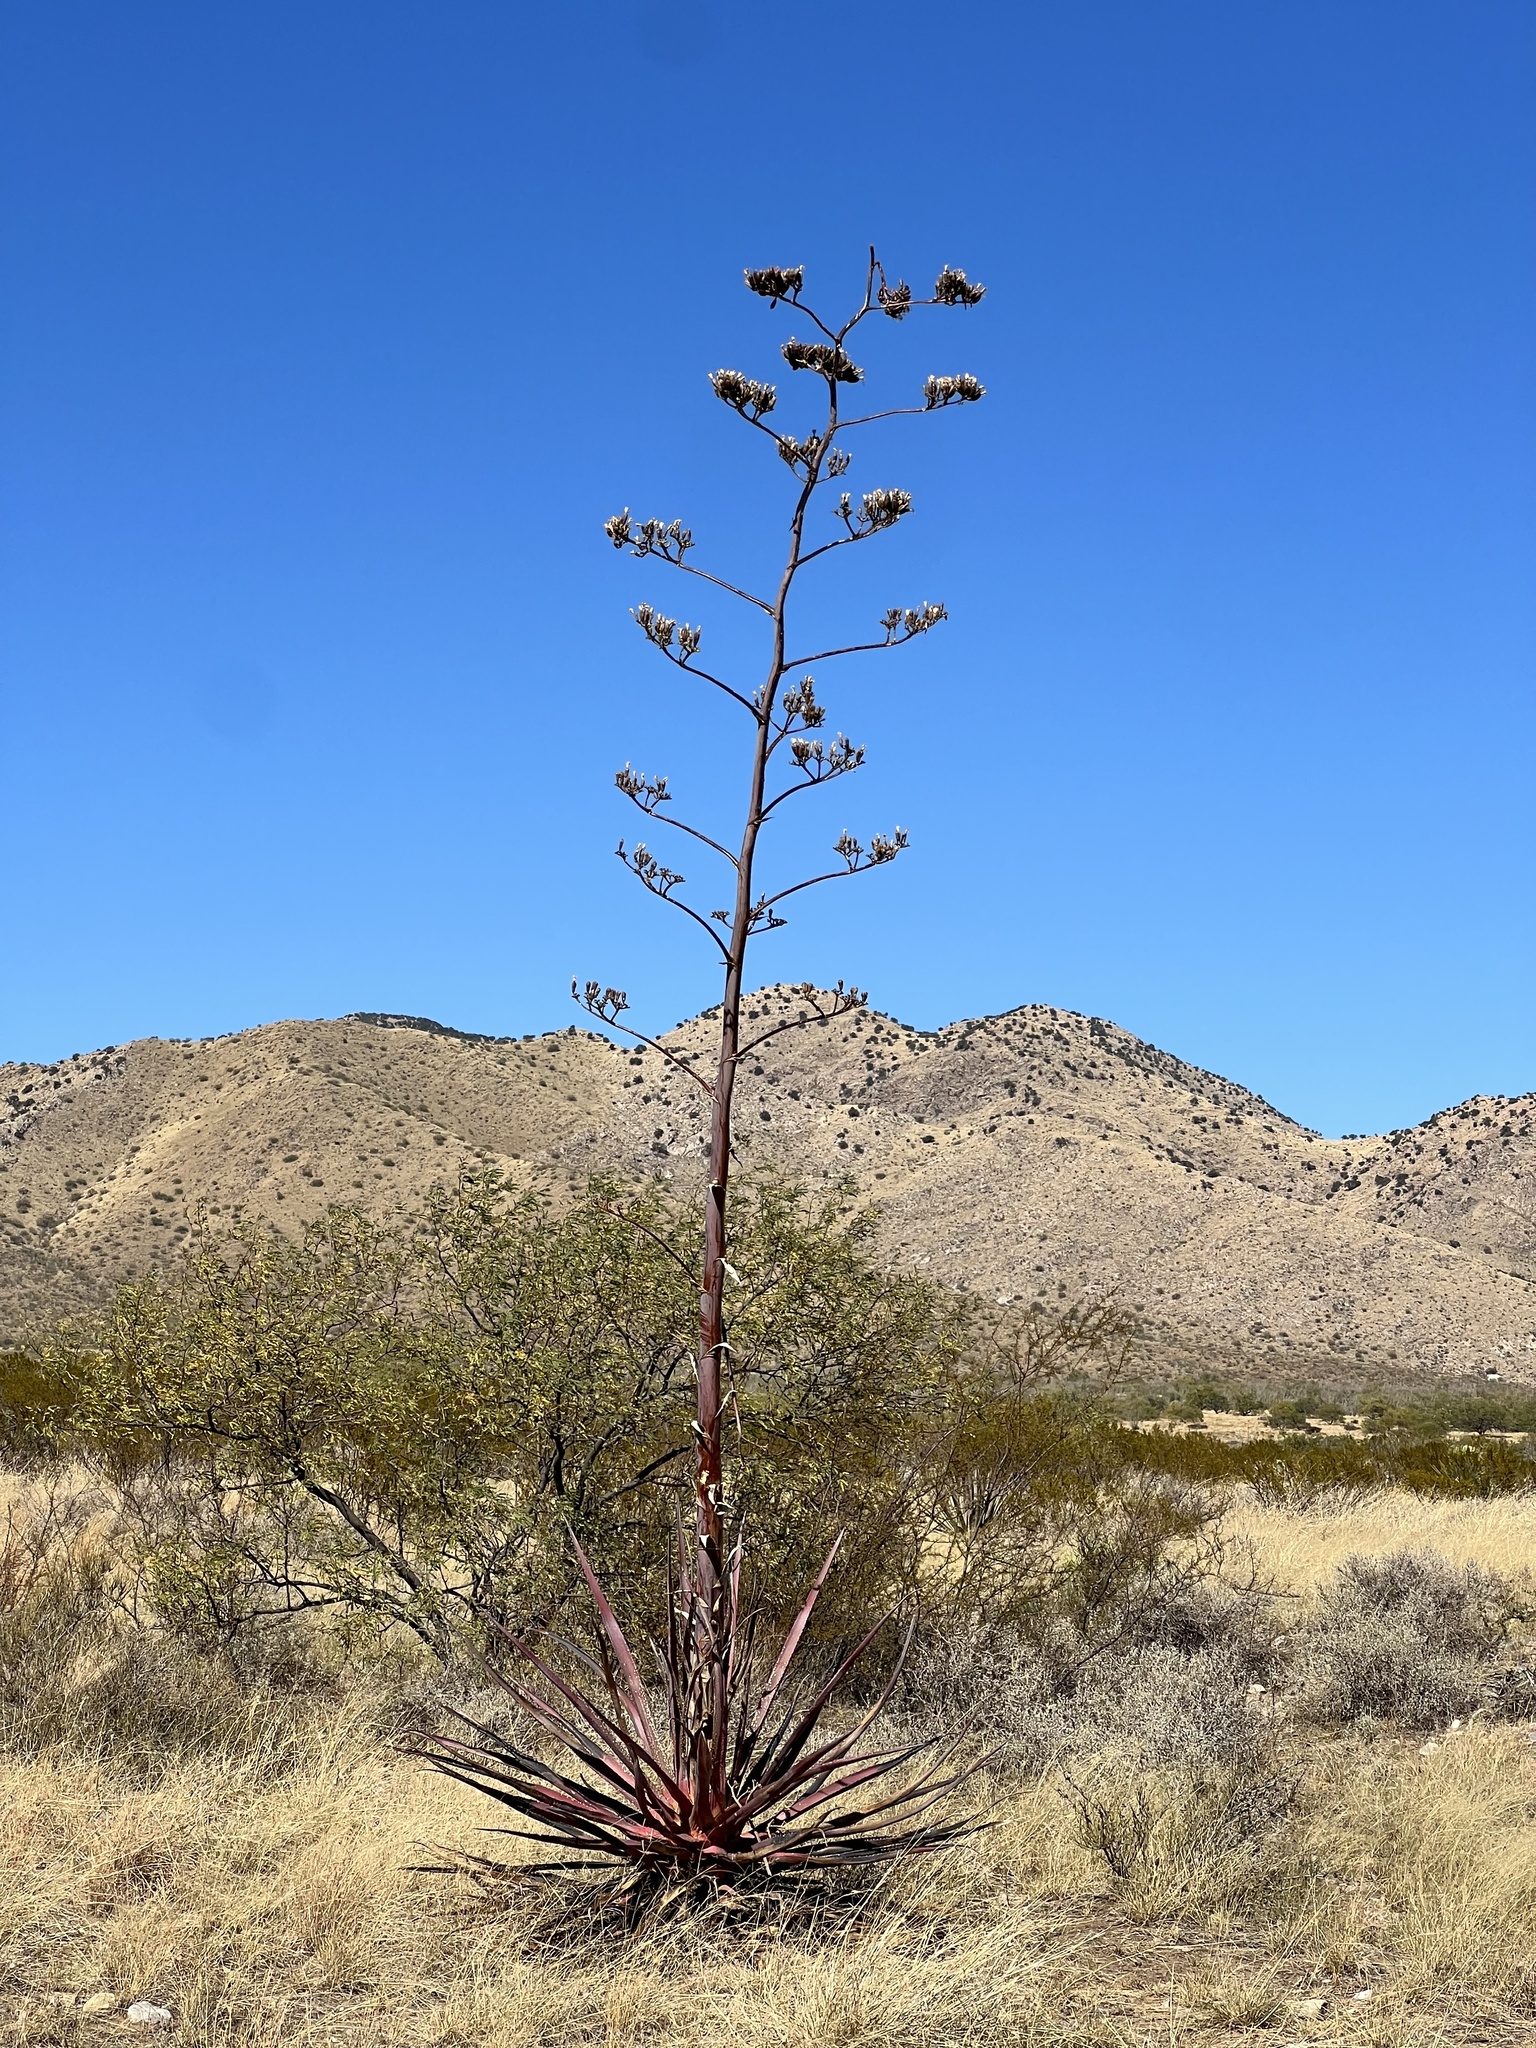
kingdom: Plantae
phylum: Tracheophyta
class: Liliopsida
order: Asparagales
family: Asparagaceae
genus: Agave
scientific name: Agave palmeri
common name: Palmer agave
